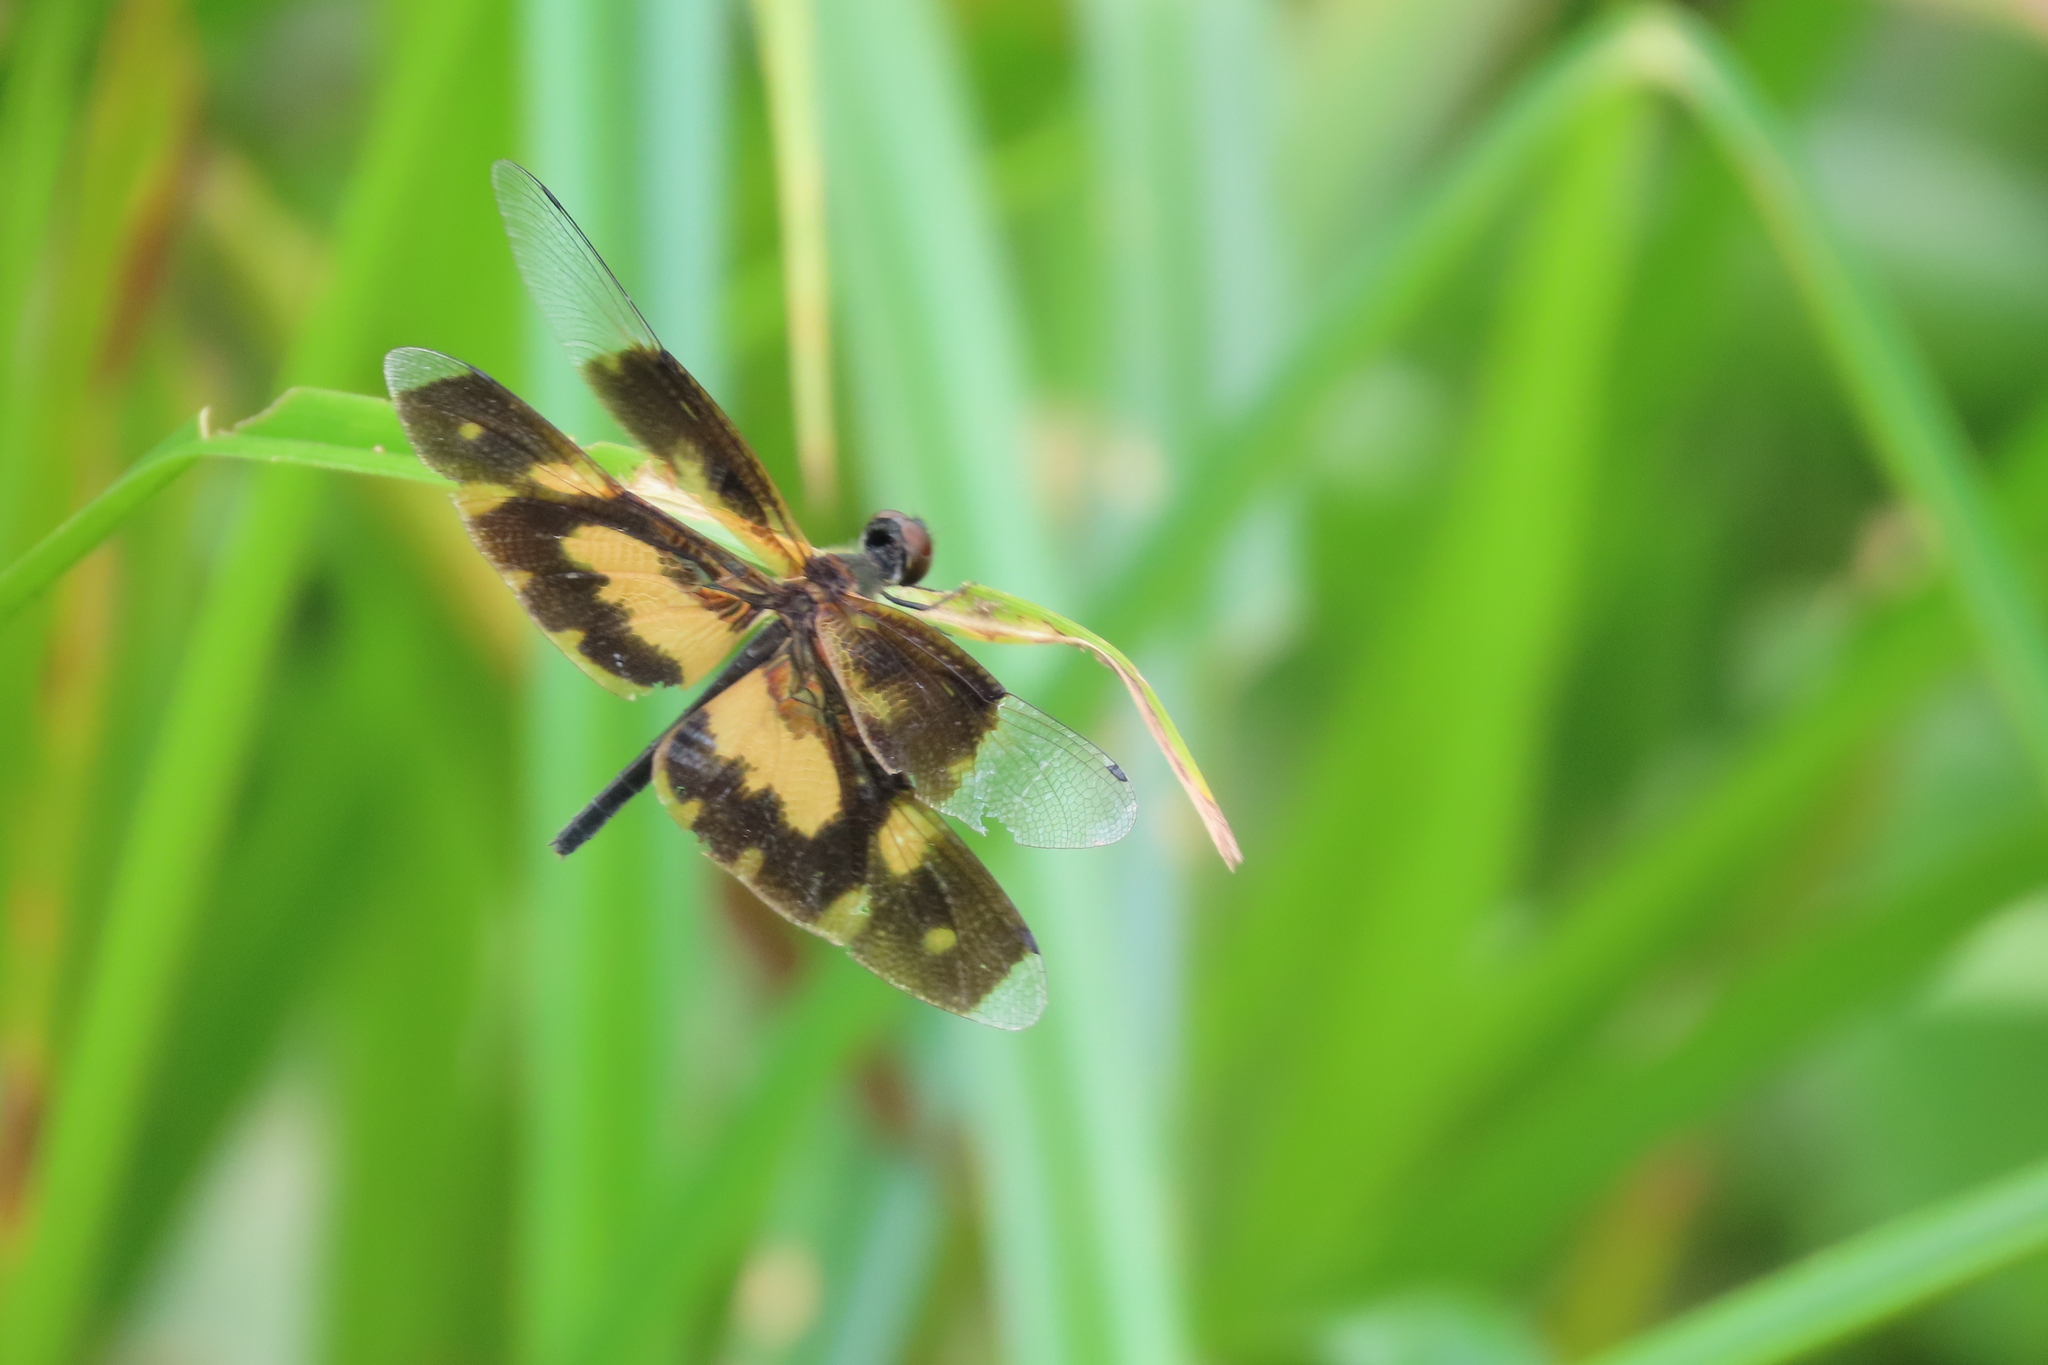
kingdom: Animalia
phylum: Arthropoda
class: Insecta
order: Odonata
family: Libellulidae
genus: Rhyothemis
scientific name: Rhyothemis variegata
